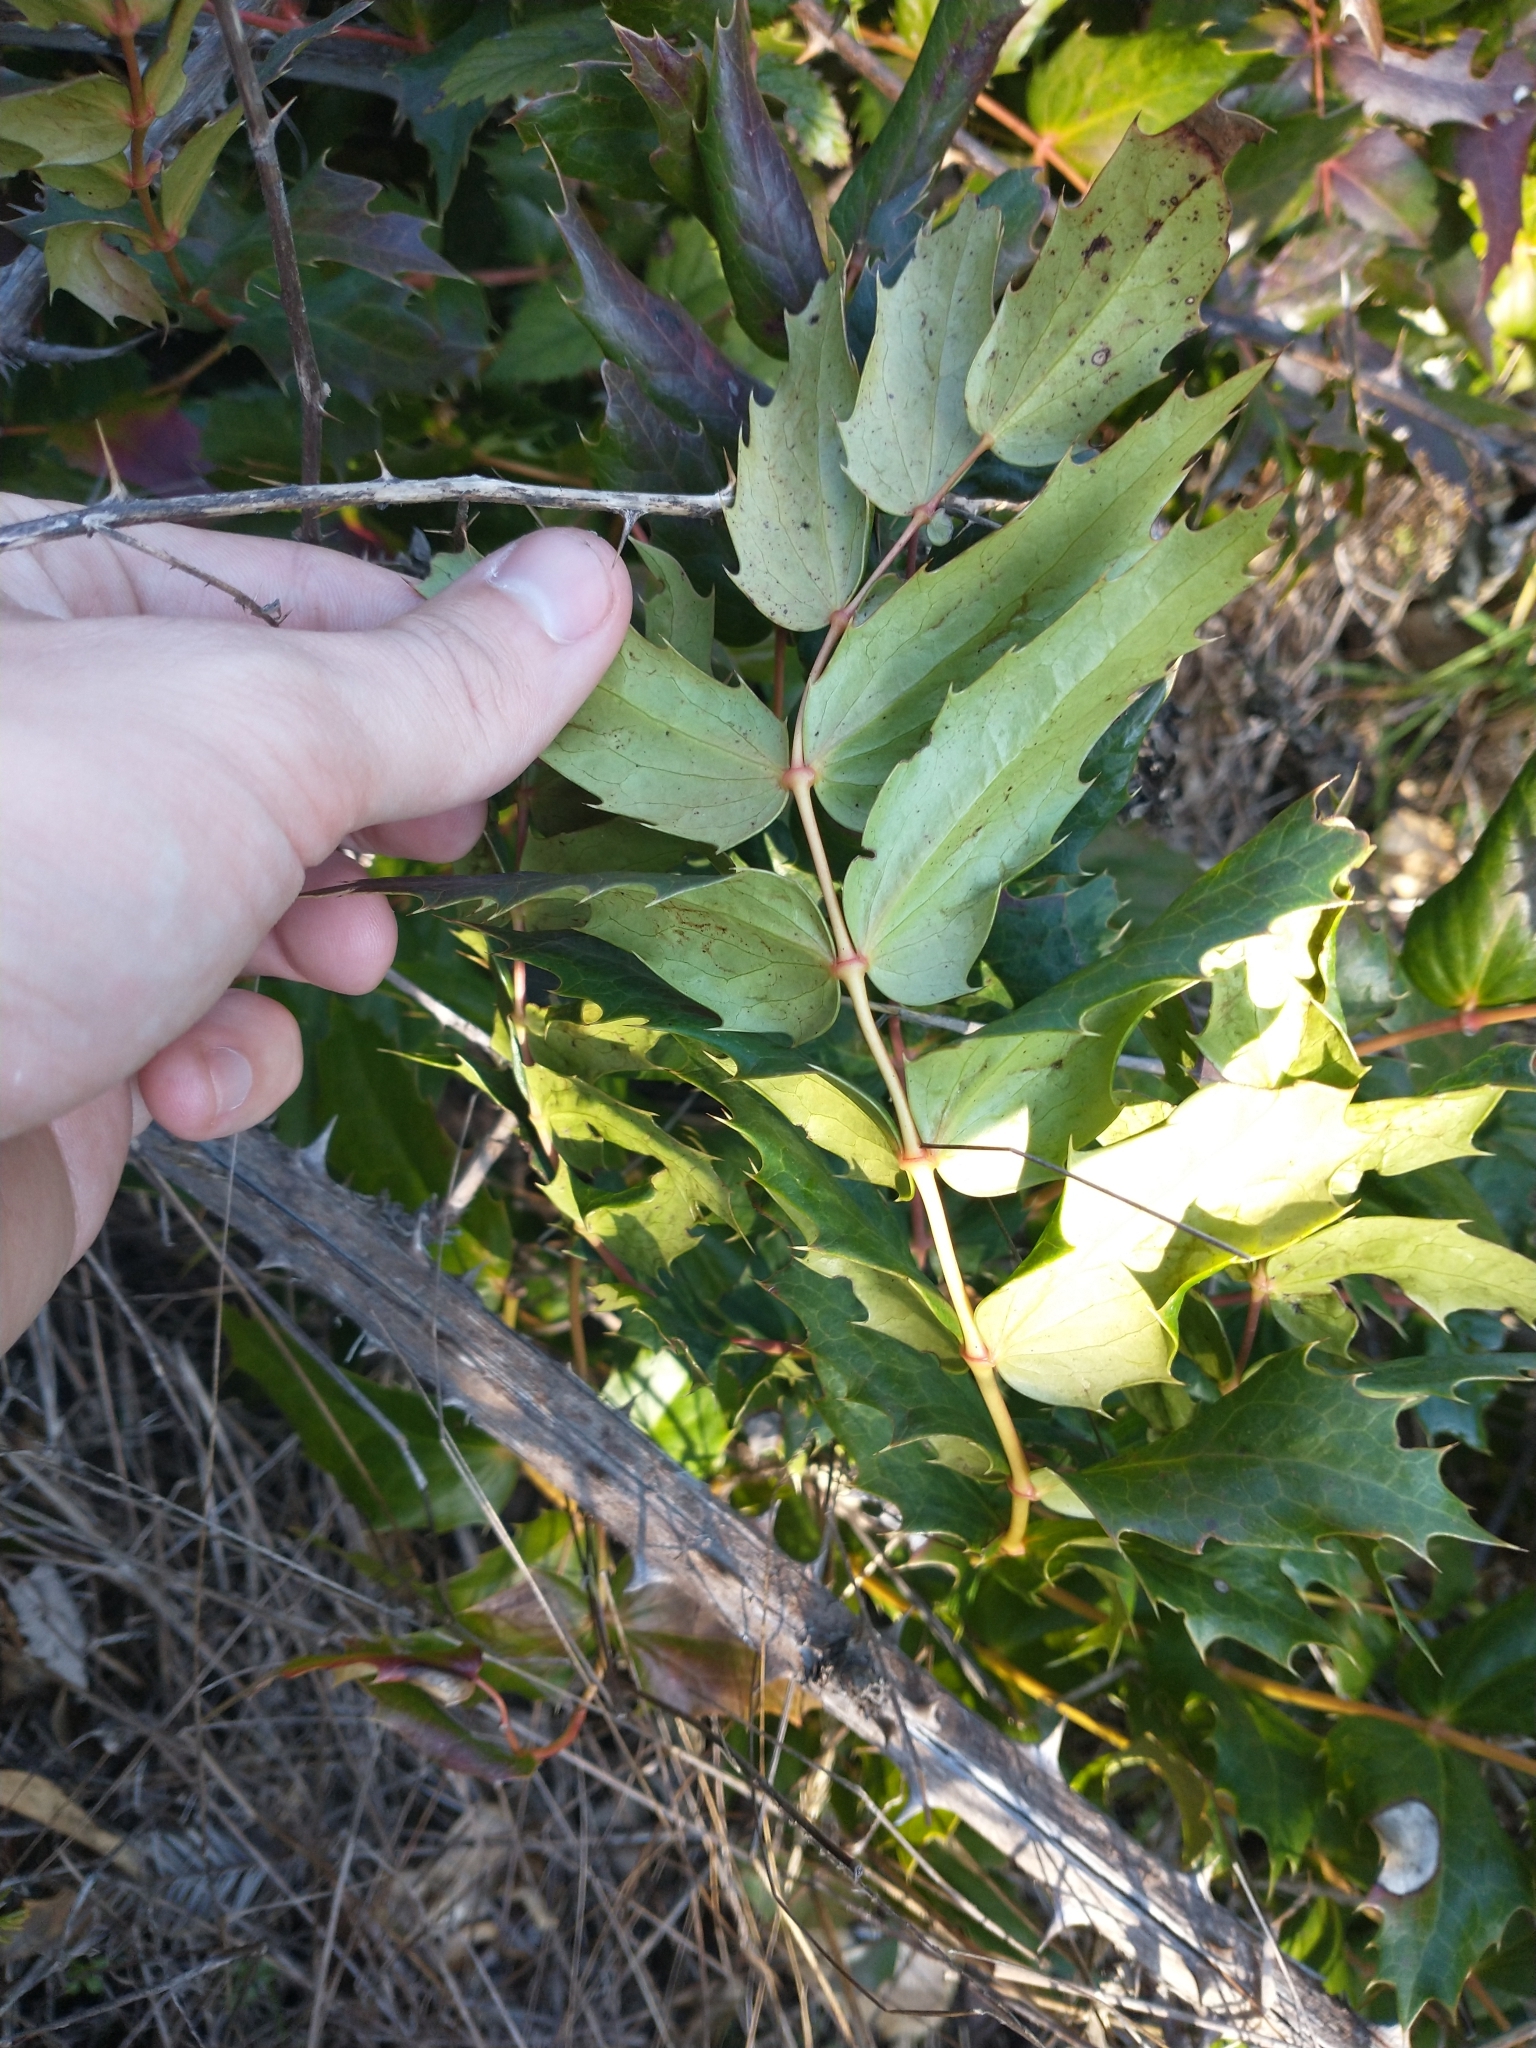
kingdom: Plantae
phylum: Tracheophyta
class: Magnoliopsida
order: Ranunculales
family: Berberidaceae
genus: Mahonia
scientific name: Mahonia nervosa
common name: Cascade oregon-grape
